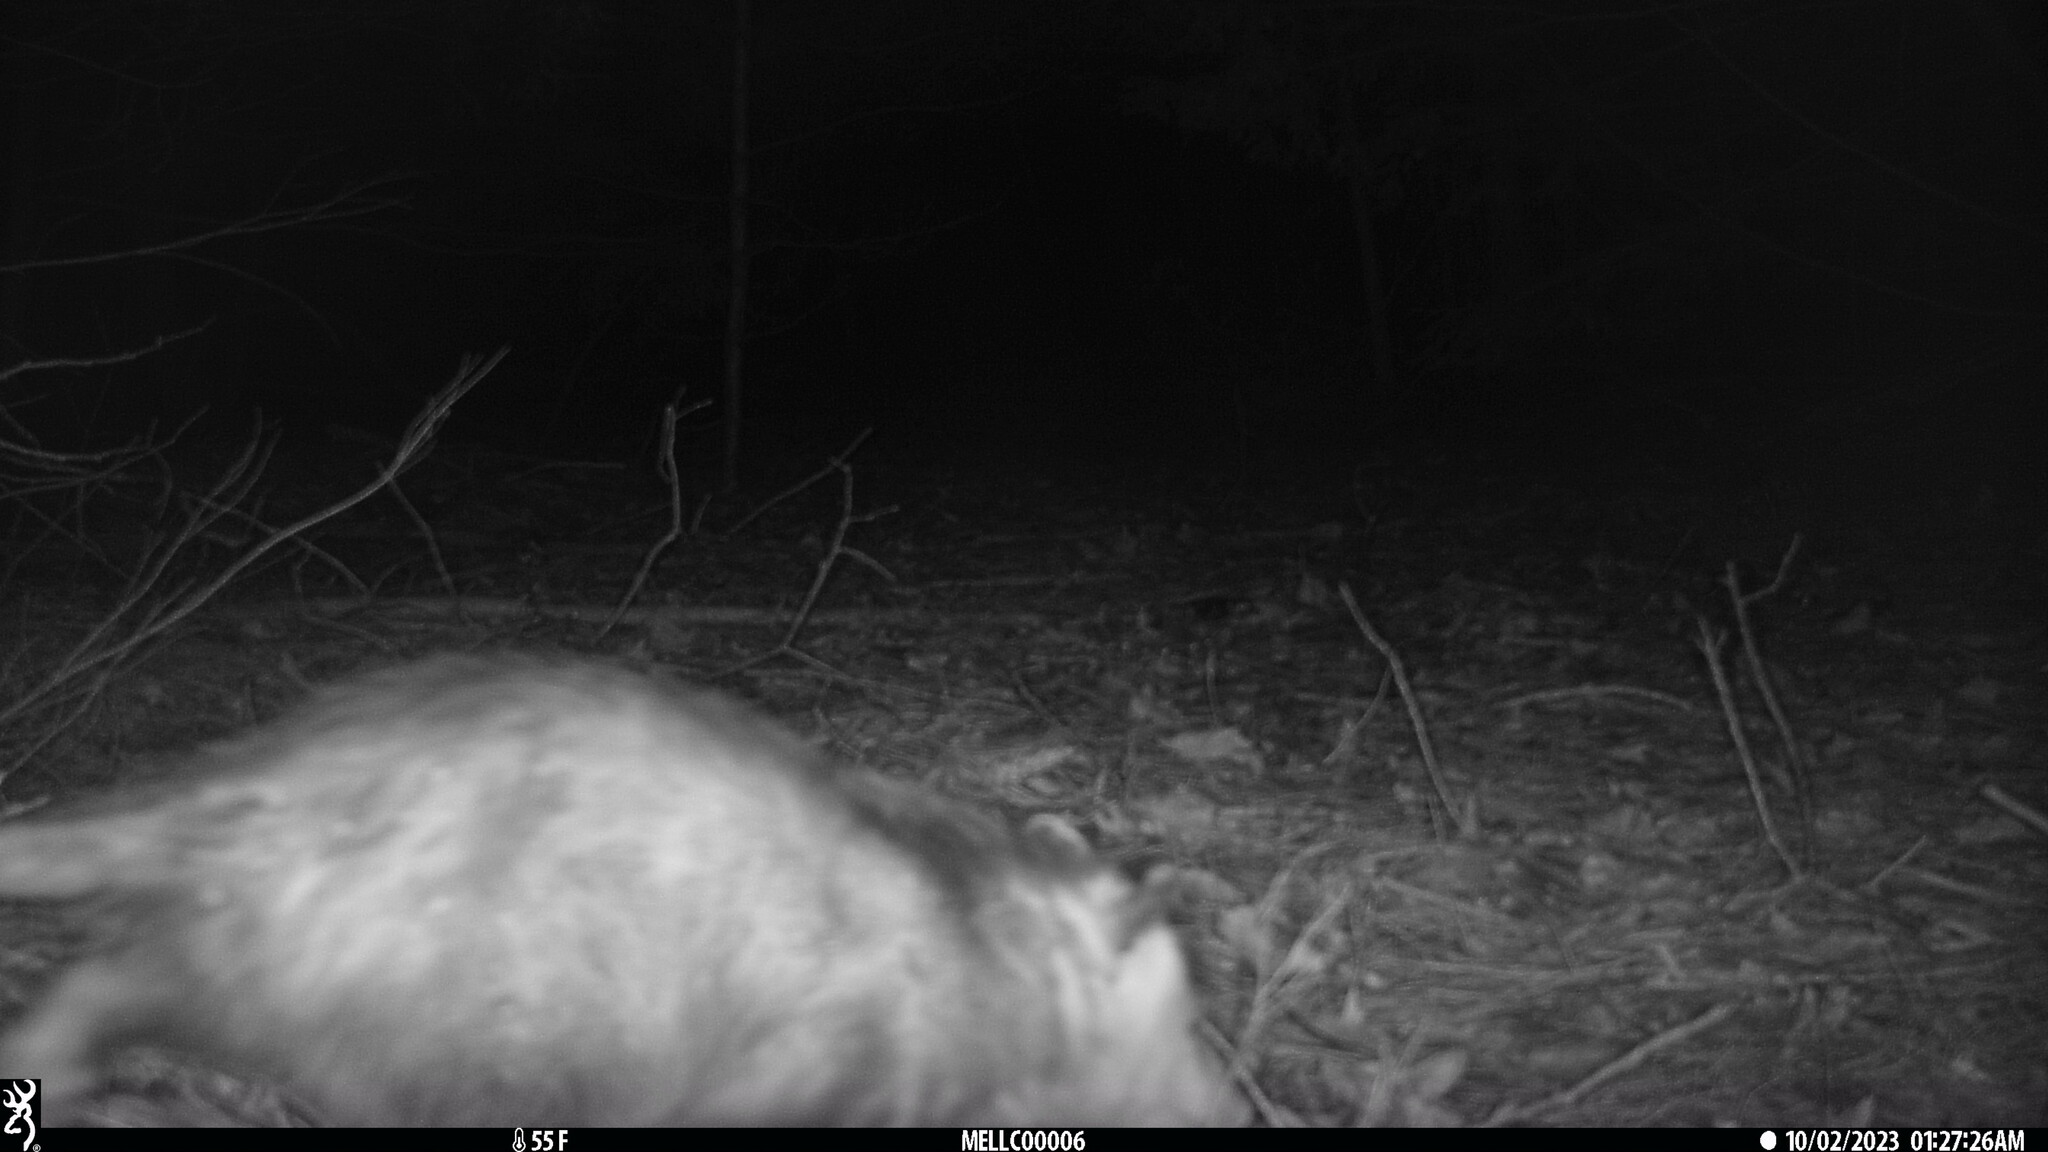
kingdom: Animalia
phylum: Chordata
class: Mammalia
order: Didelphimorphia
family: Didelphidae
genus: Didelphis
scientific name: Didelphis virginiana
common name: Virginia opossum
